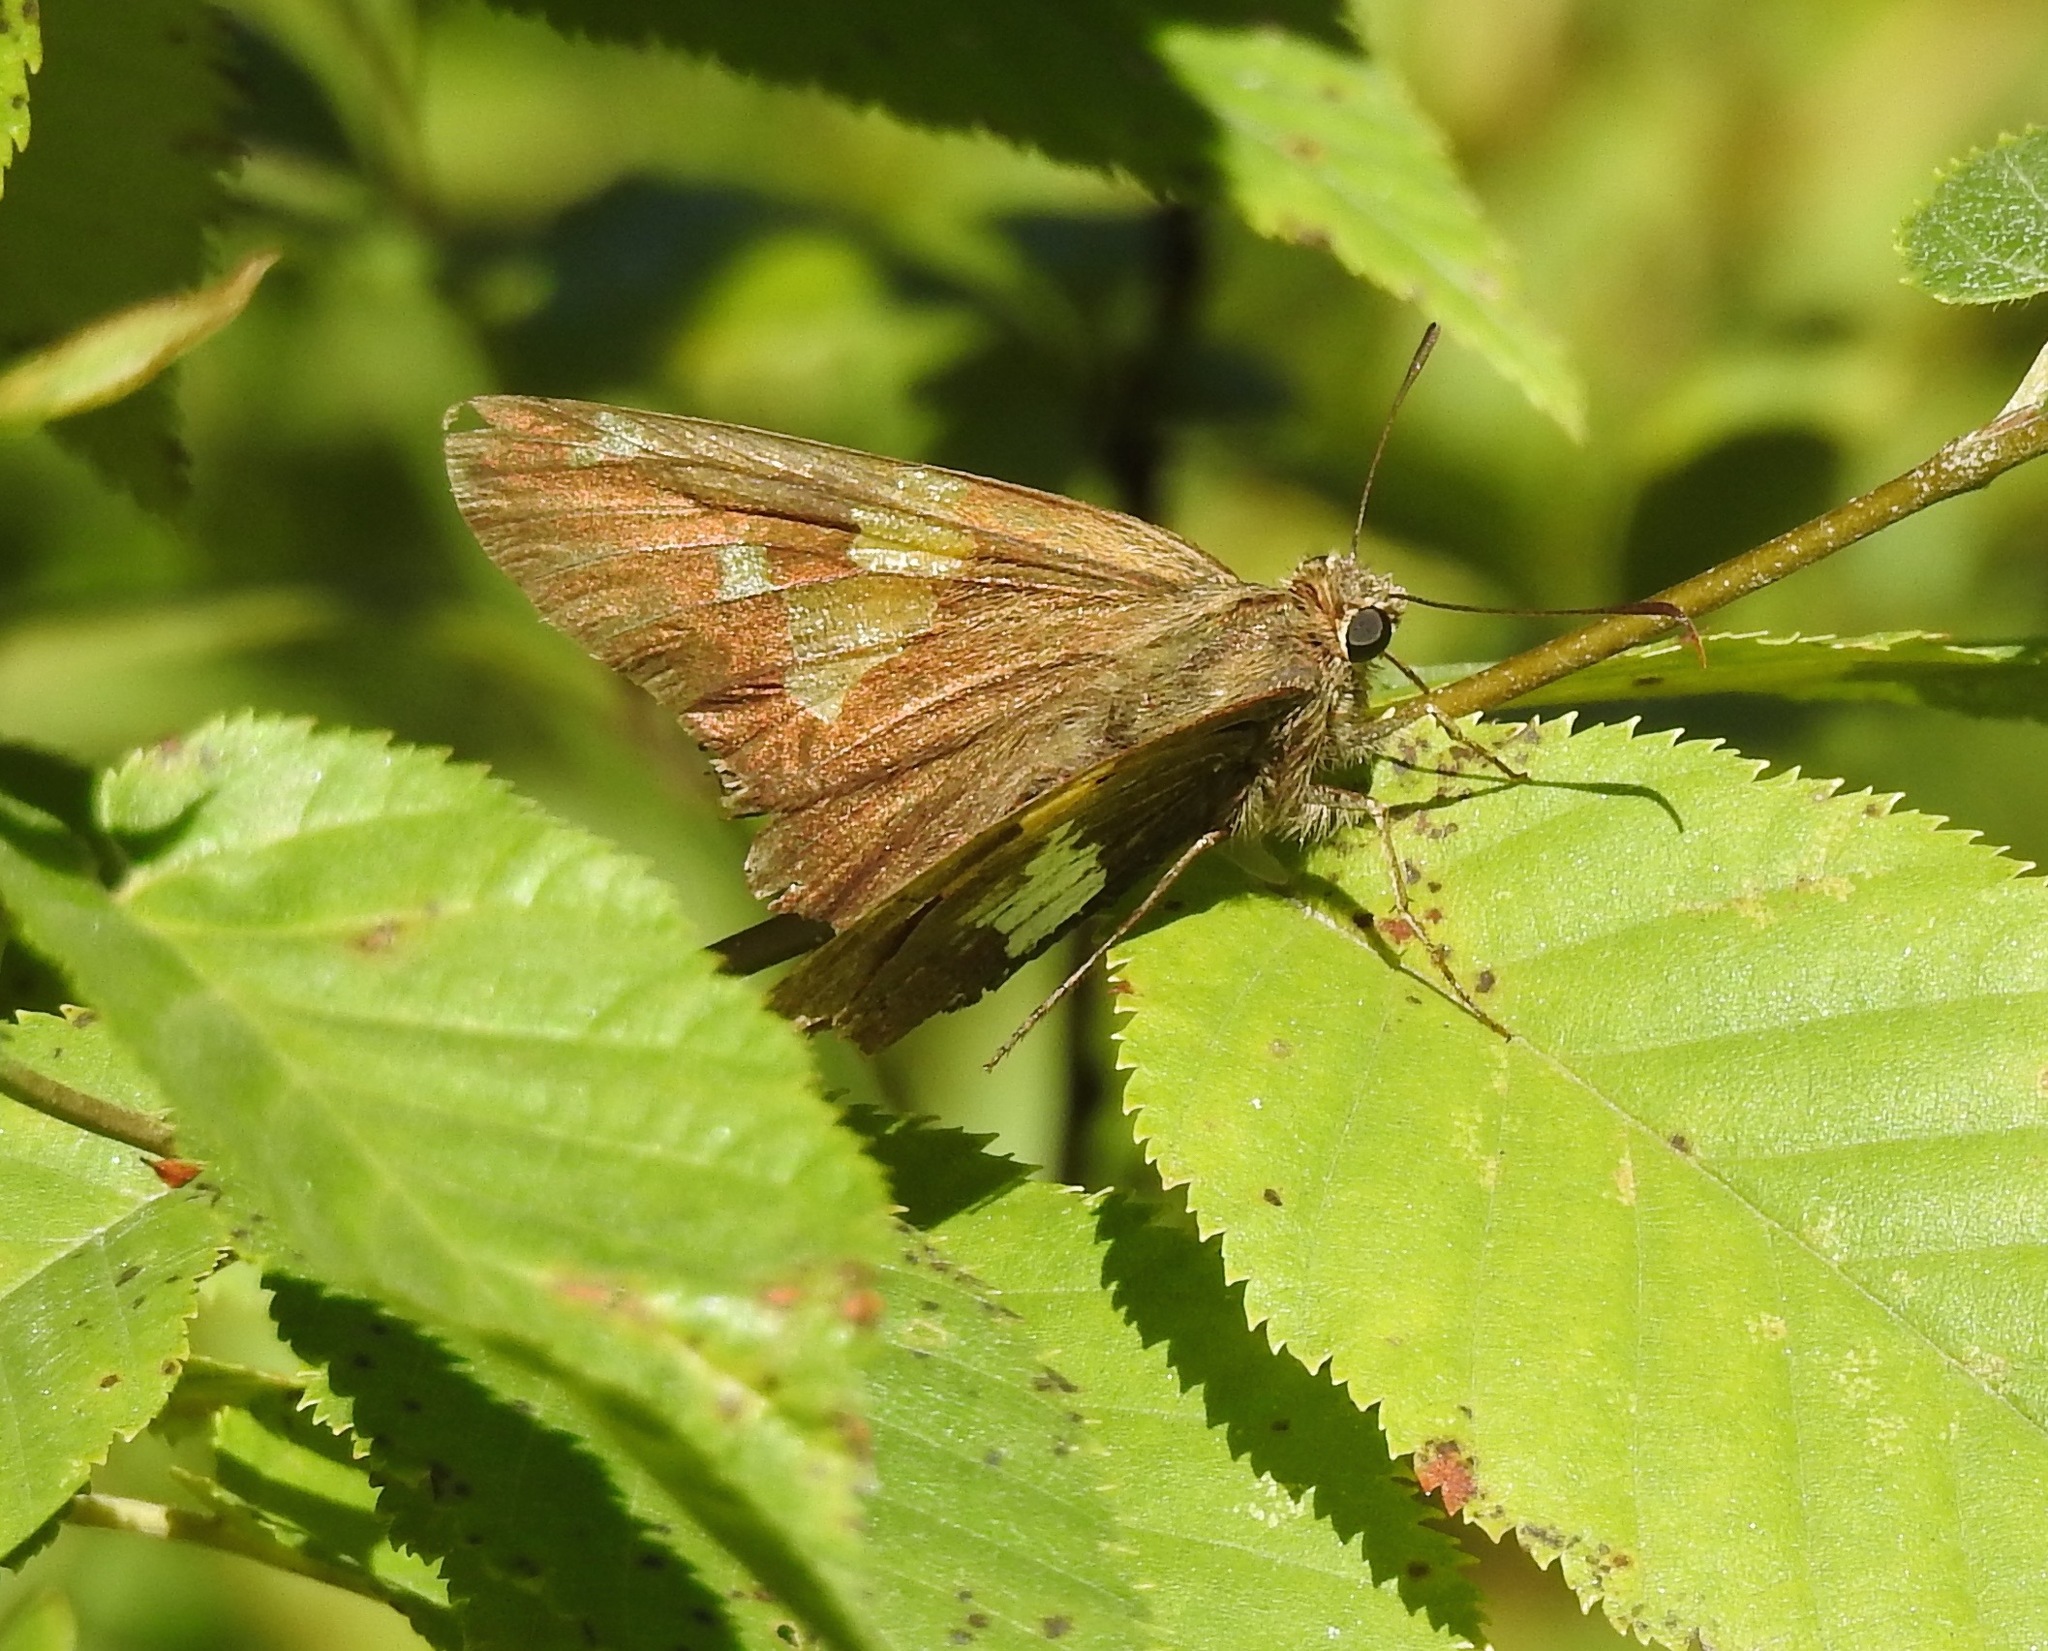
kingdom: Animalia
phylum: Arthropoda
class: Insecta
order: Lepidoptera
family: Hesperiidae
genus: Epargyreus
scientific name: Epargyreus clarus
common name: Silver-spotted skipper
